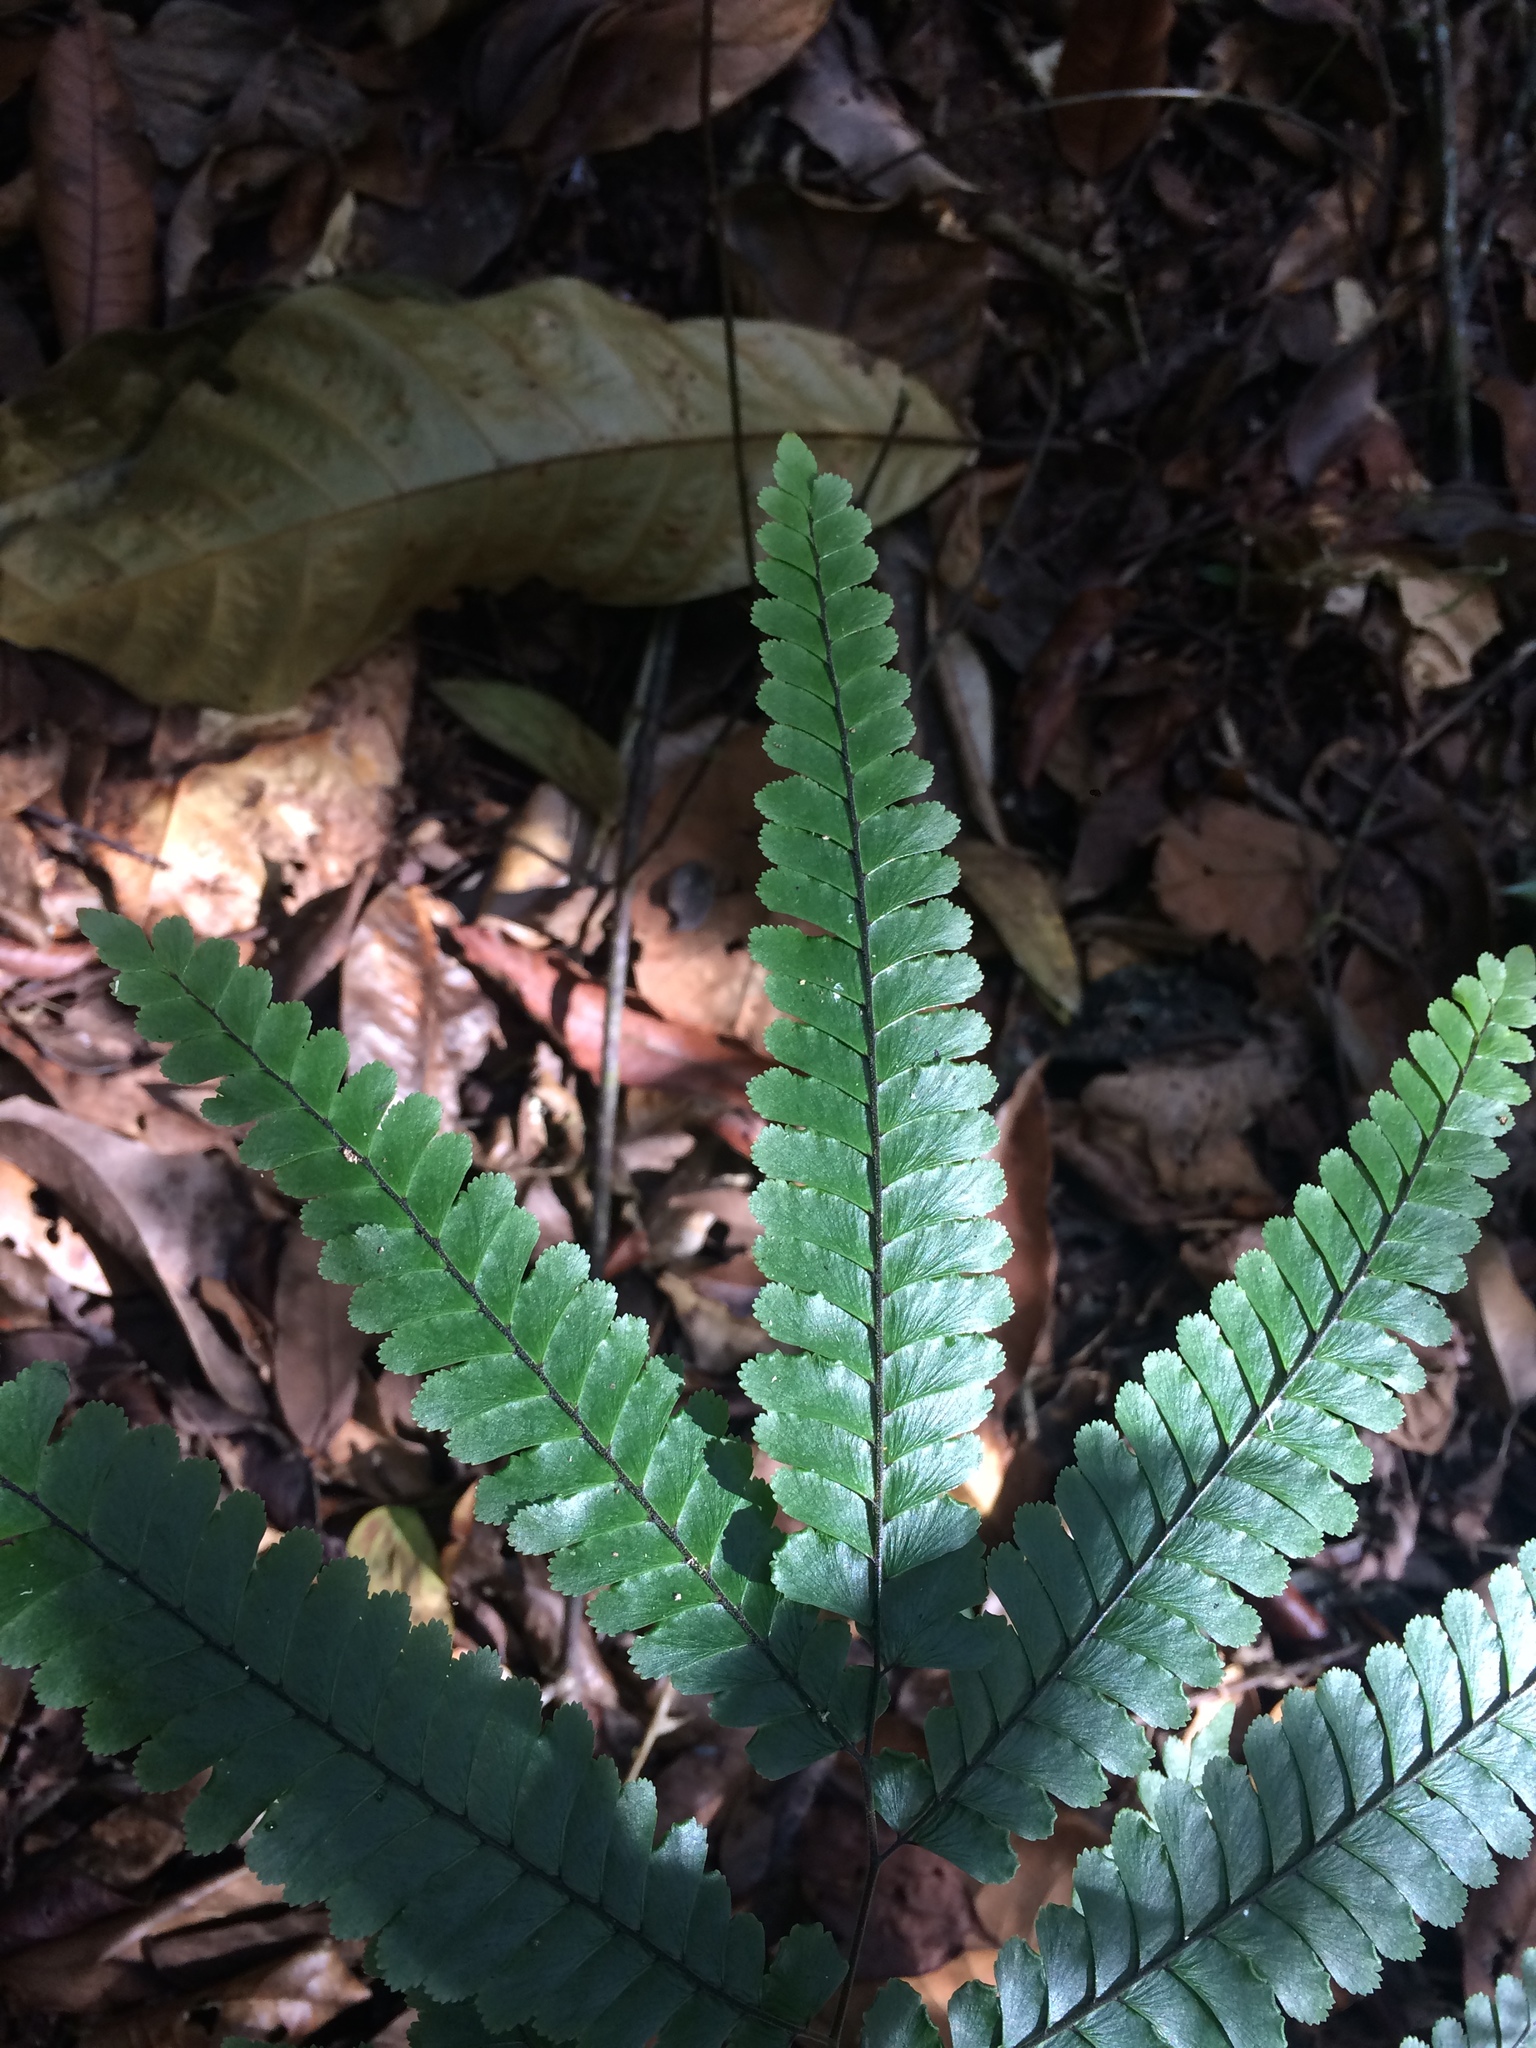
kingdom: Plantae
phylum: Tracheophyta
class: Polypodiopsida
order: Polypodiales
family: Pteridaceae
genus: Adiantum
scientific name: Adiantum abscissum
